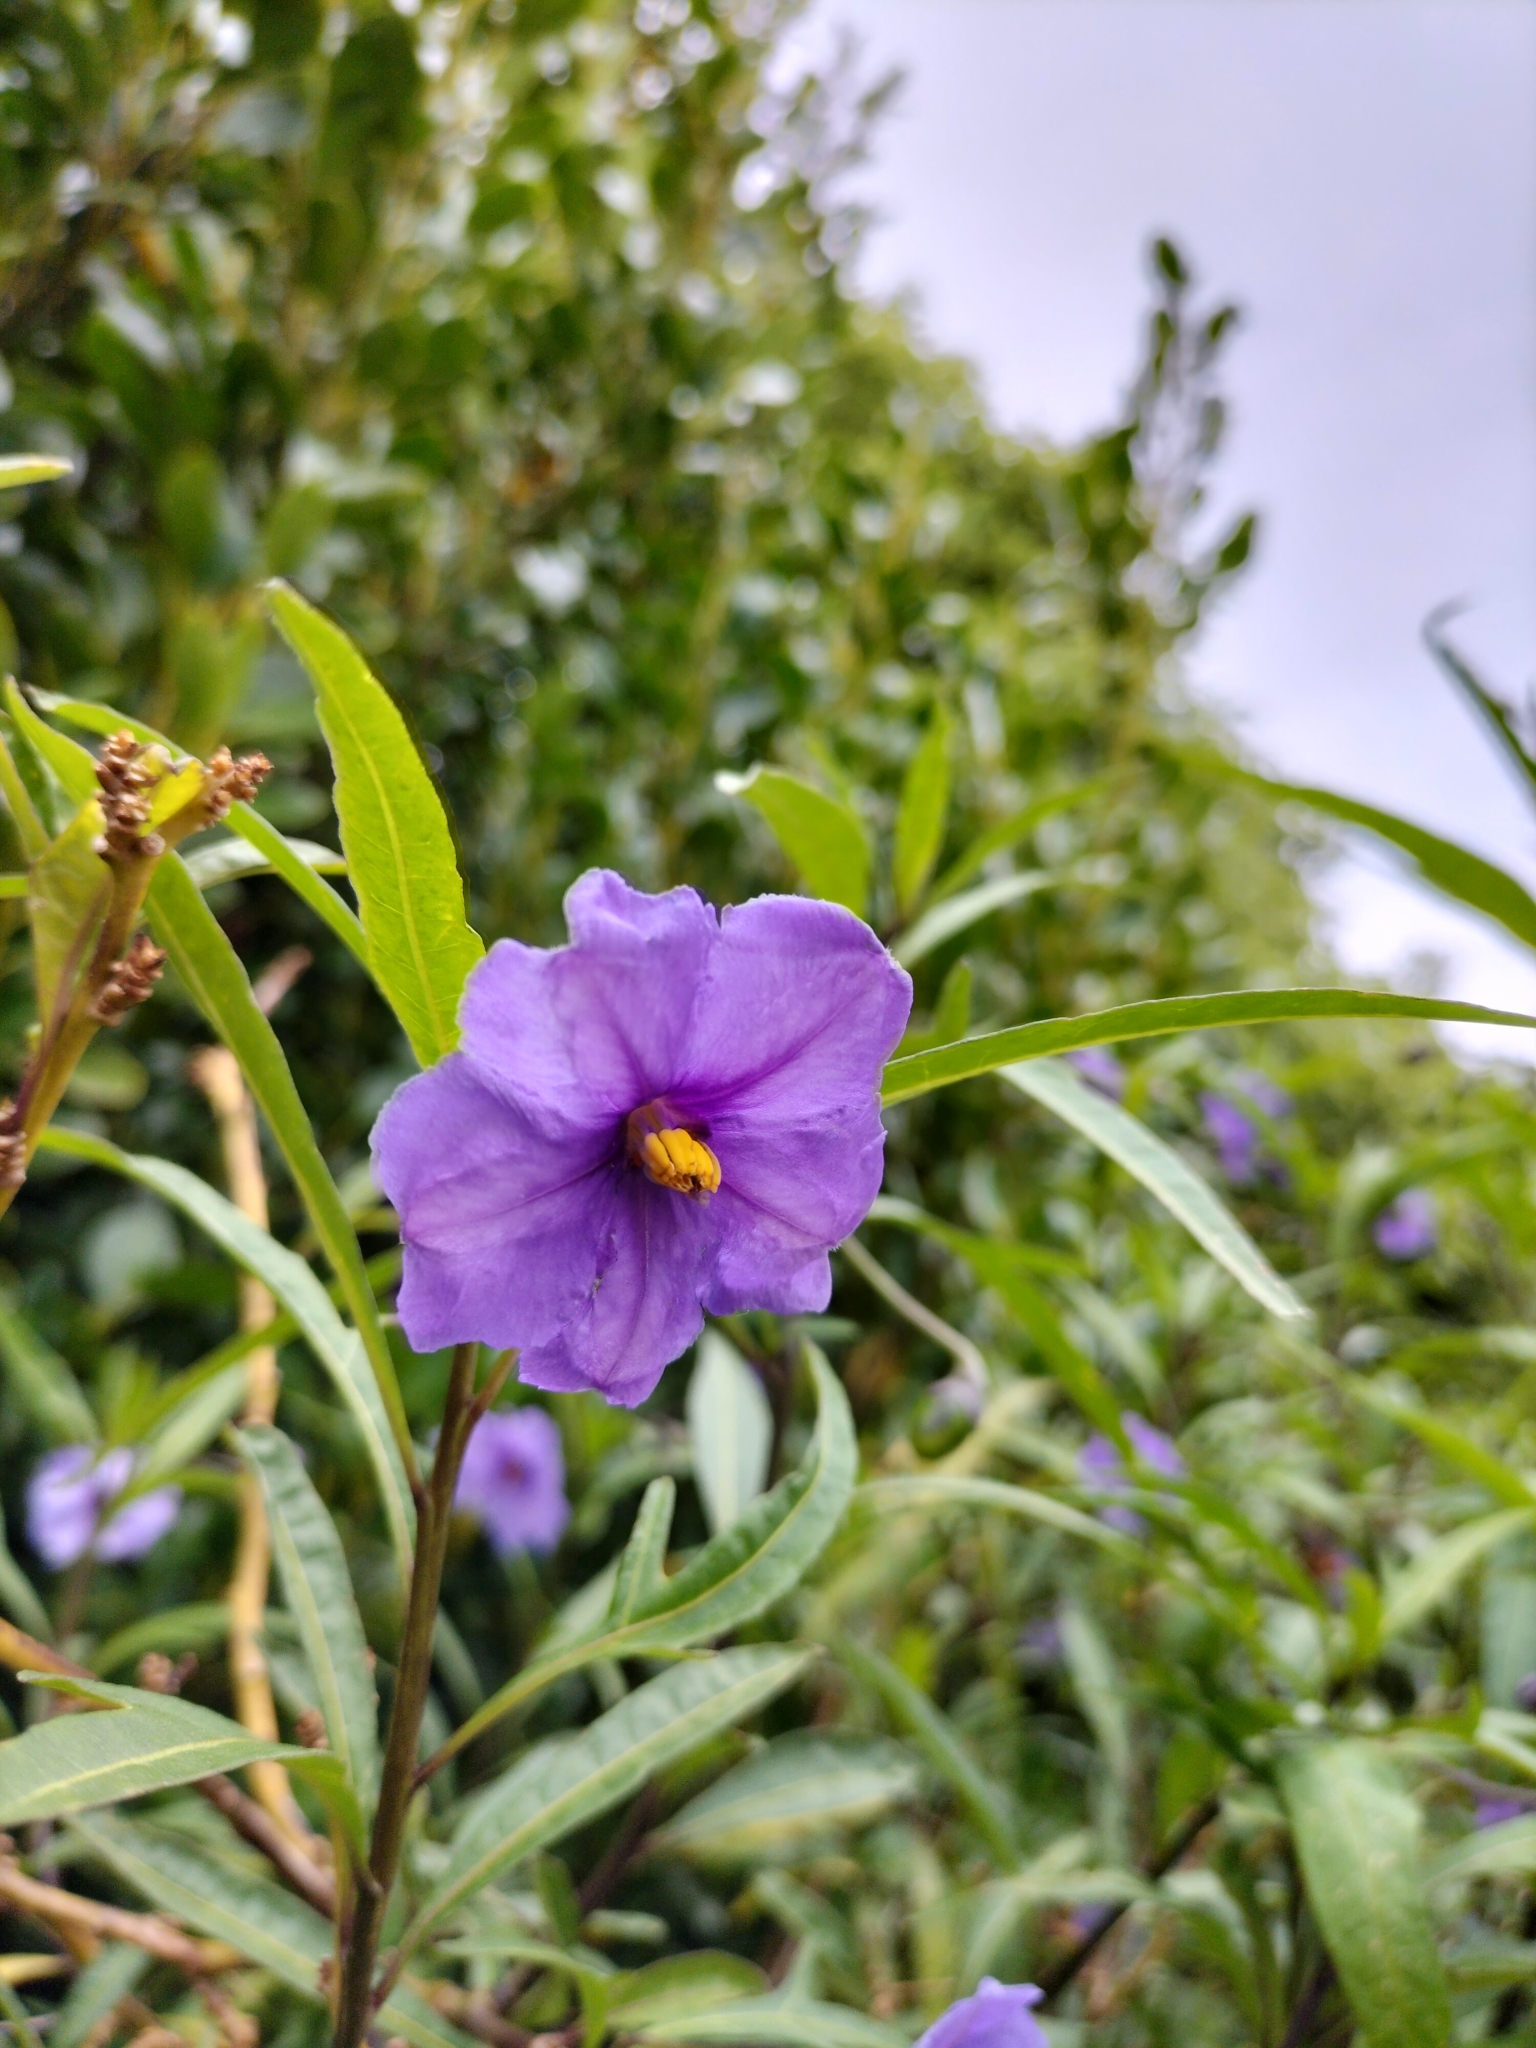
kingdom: Plantae
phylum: Tracheophyta
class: Magnoliopsida
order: Solanales
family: Solanaceae
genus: Solanum
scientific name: Solanum laciniatum
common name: Kangaroo-apple
